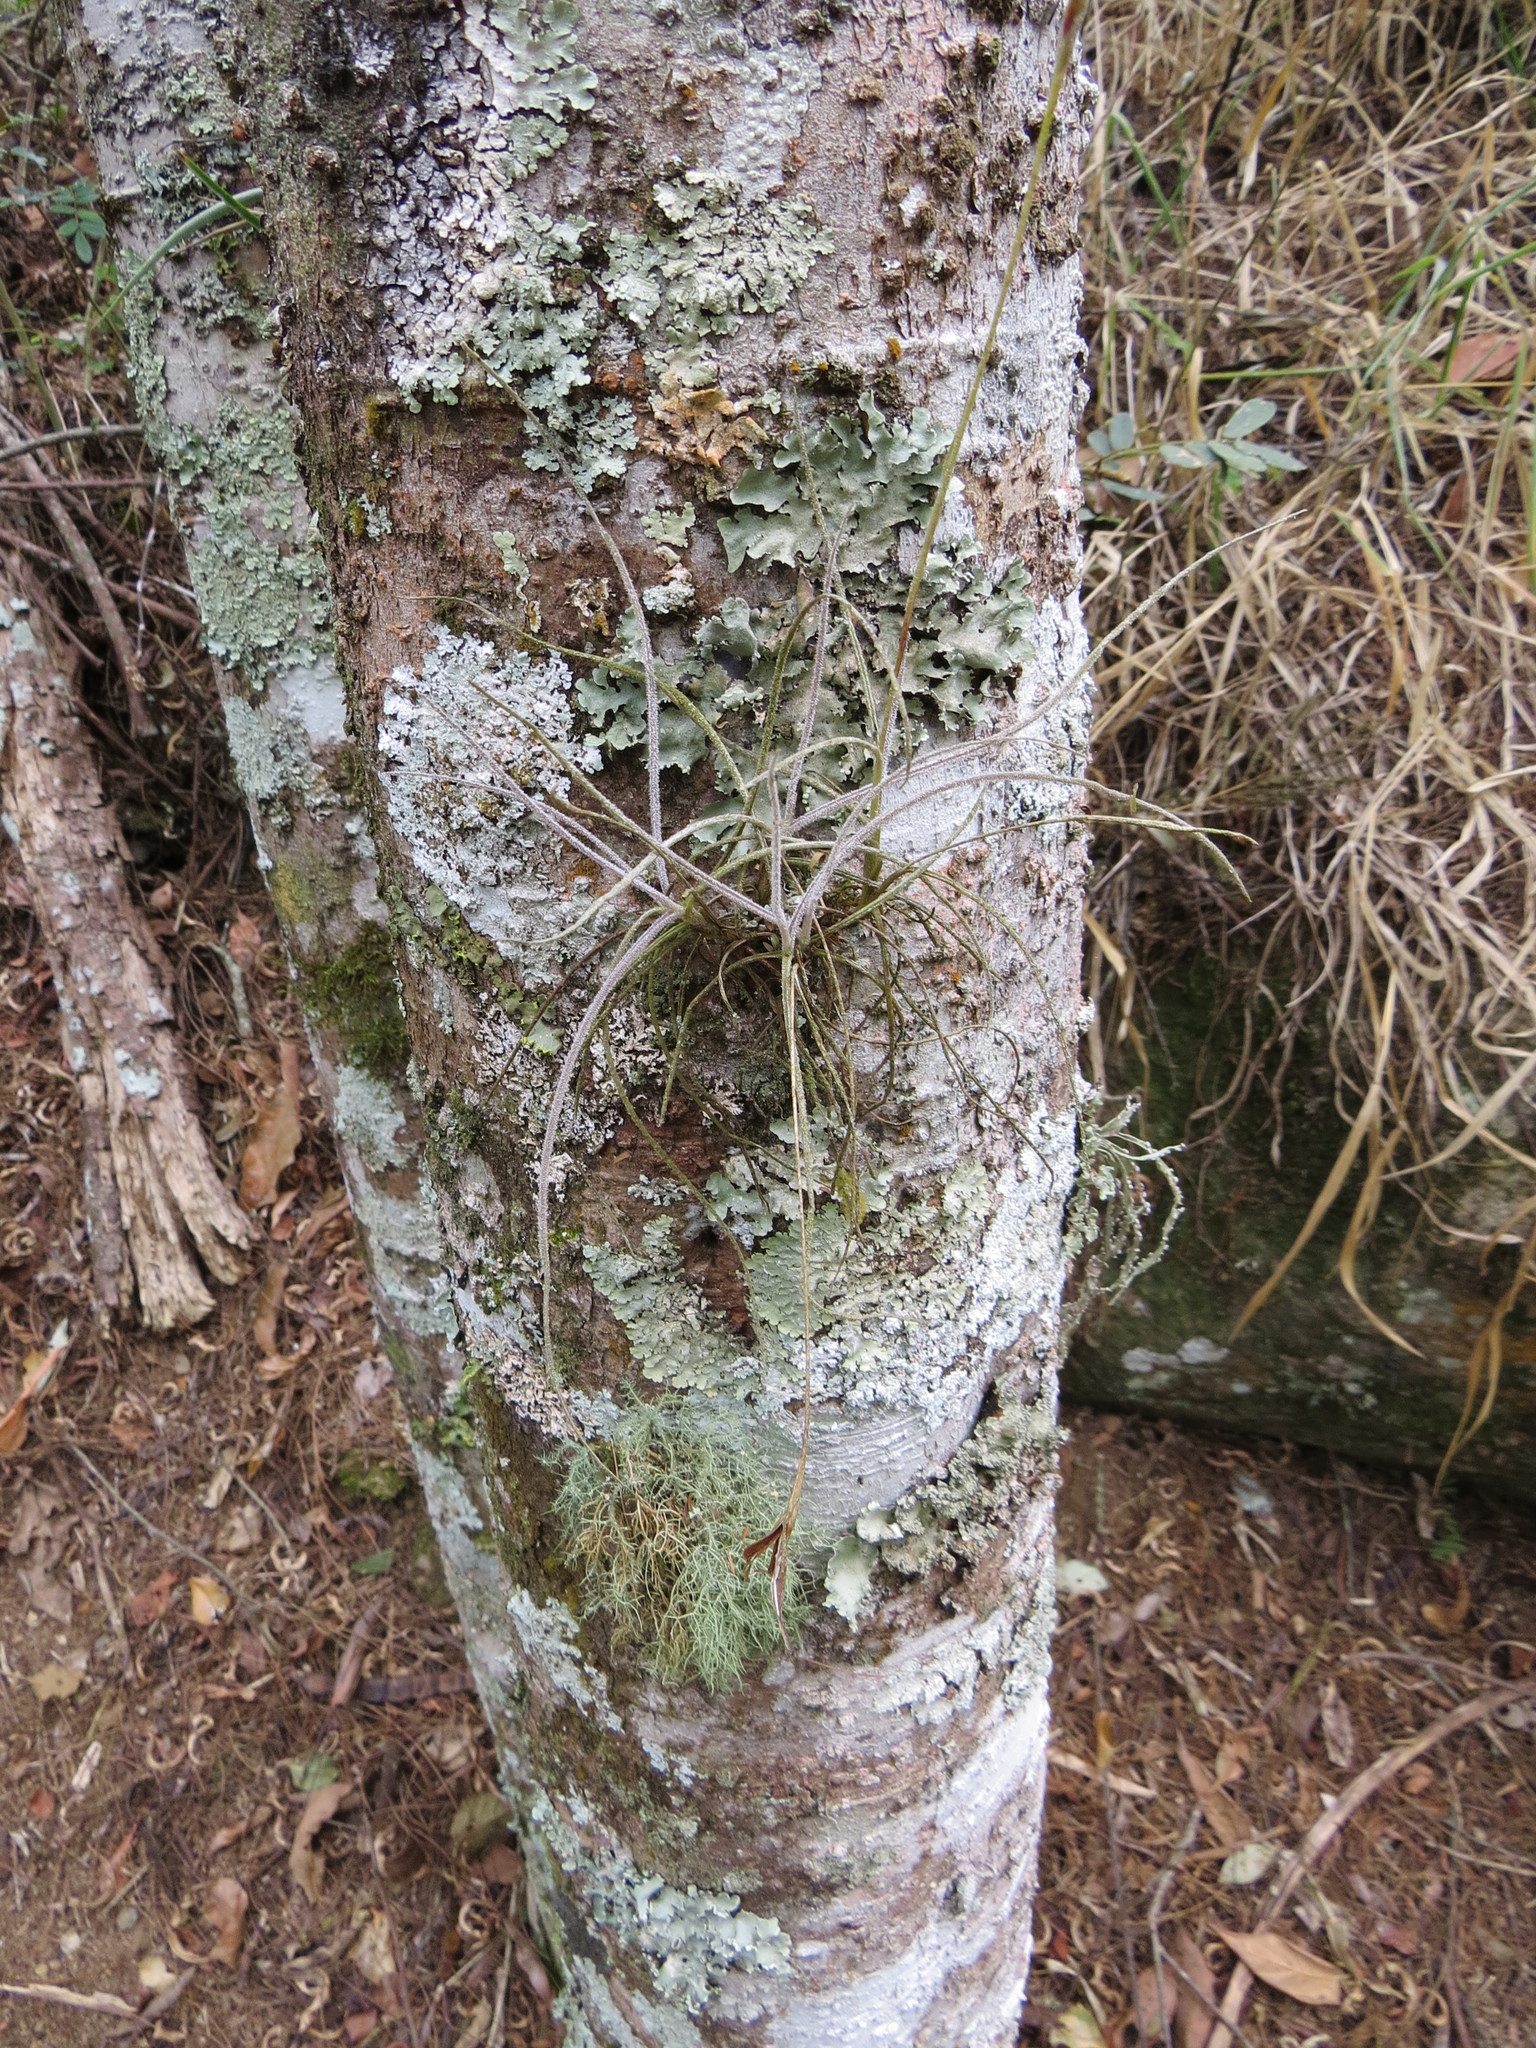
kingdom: Plantae
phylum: Tracheophyta
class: Liliopsida
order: Poales
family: Bromeliaceae
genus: Tillandsia
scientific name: Tillandsia recurvata
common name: Small ballmoss
